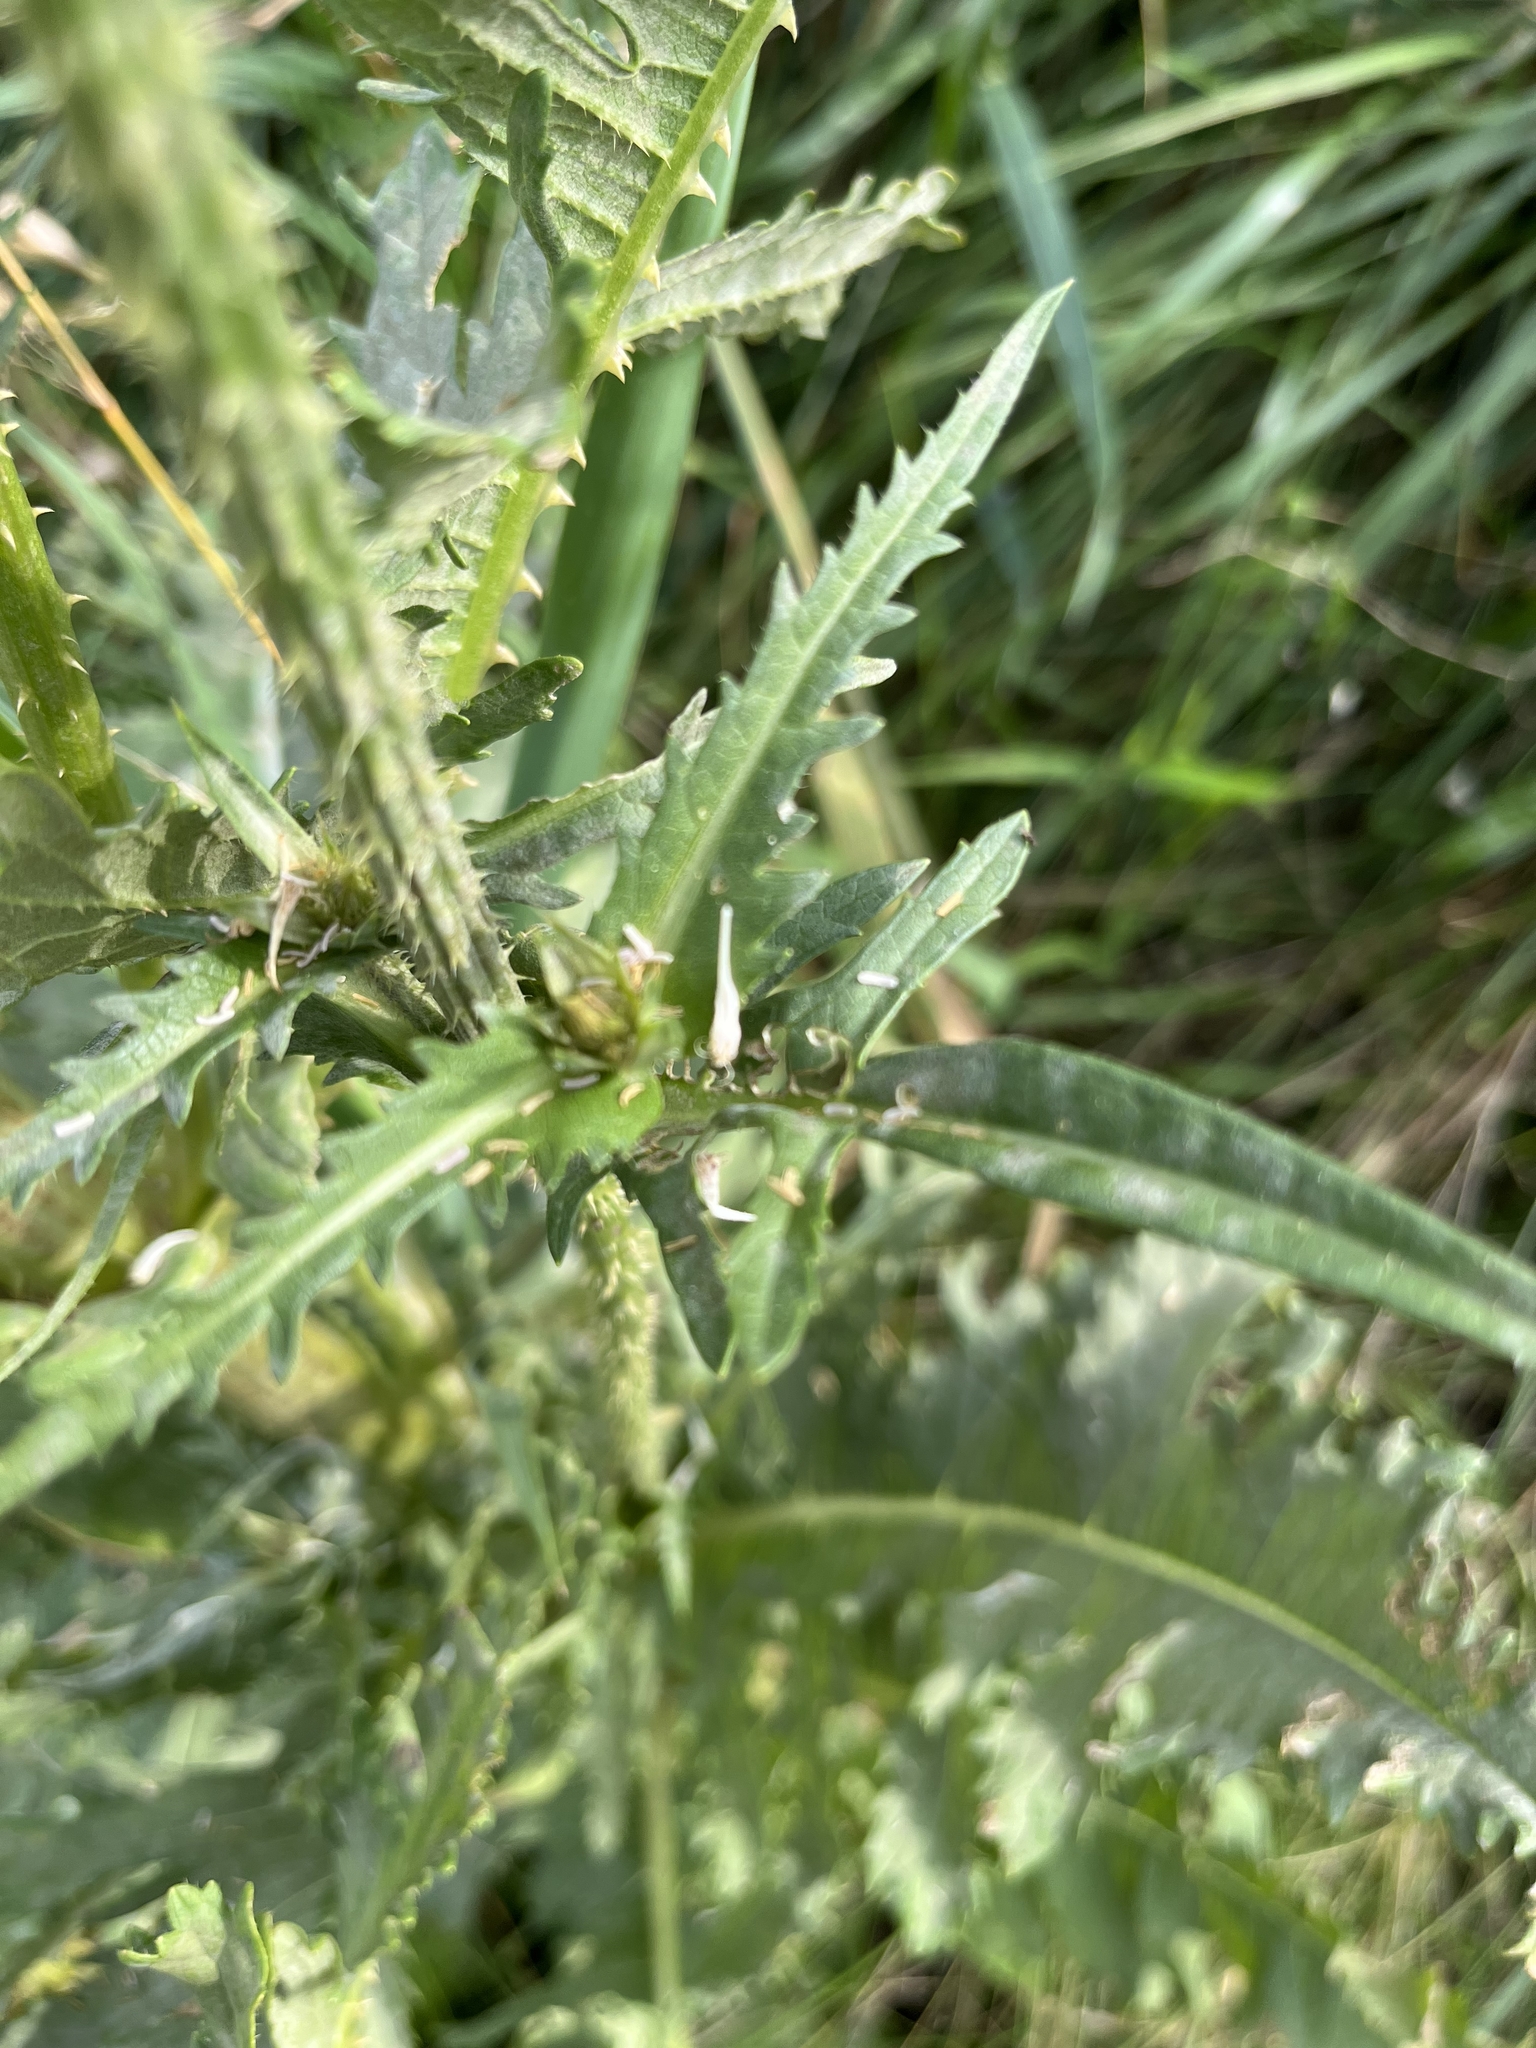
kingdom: Plantae
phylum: Tracheophyta
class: Magnoliopsida
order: Dipsacales
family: Caprifoliaceae
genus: Dipsacus
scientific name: Dipsacus laciniatus
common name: Cut-leaved teasel
